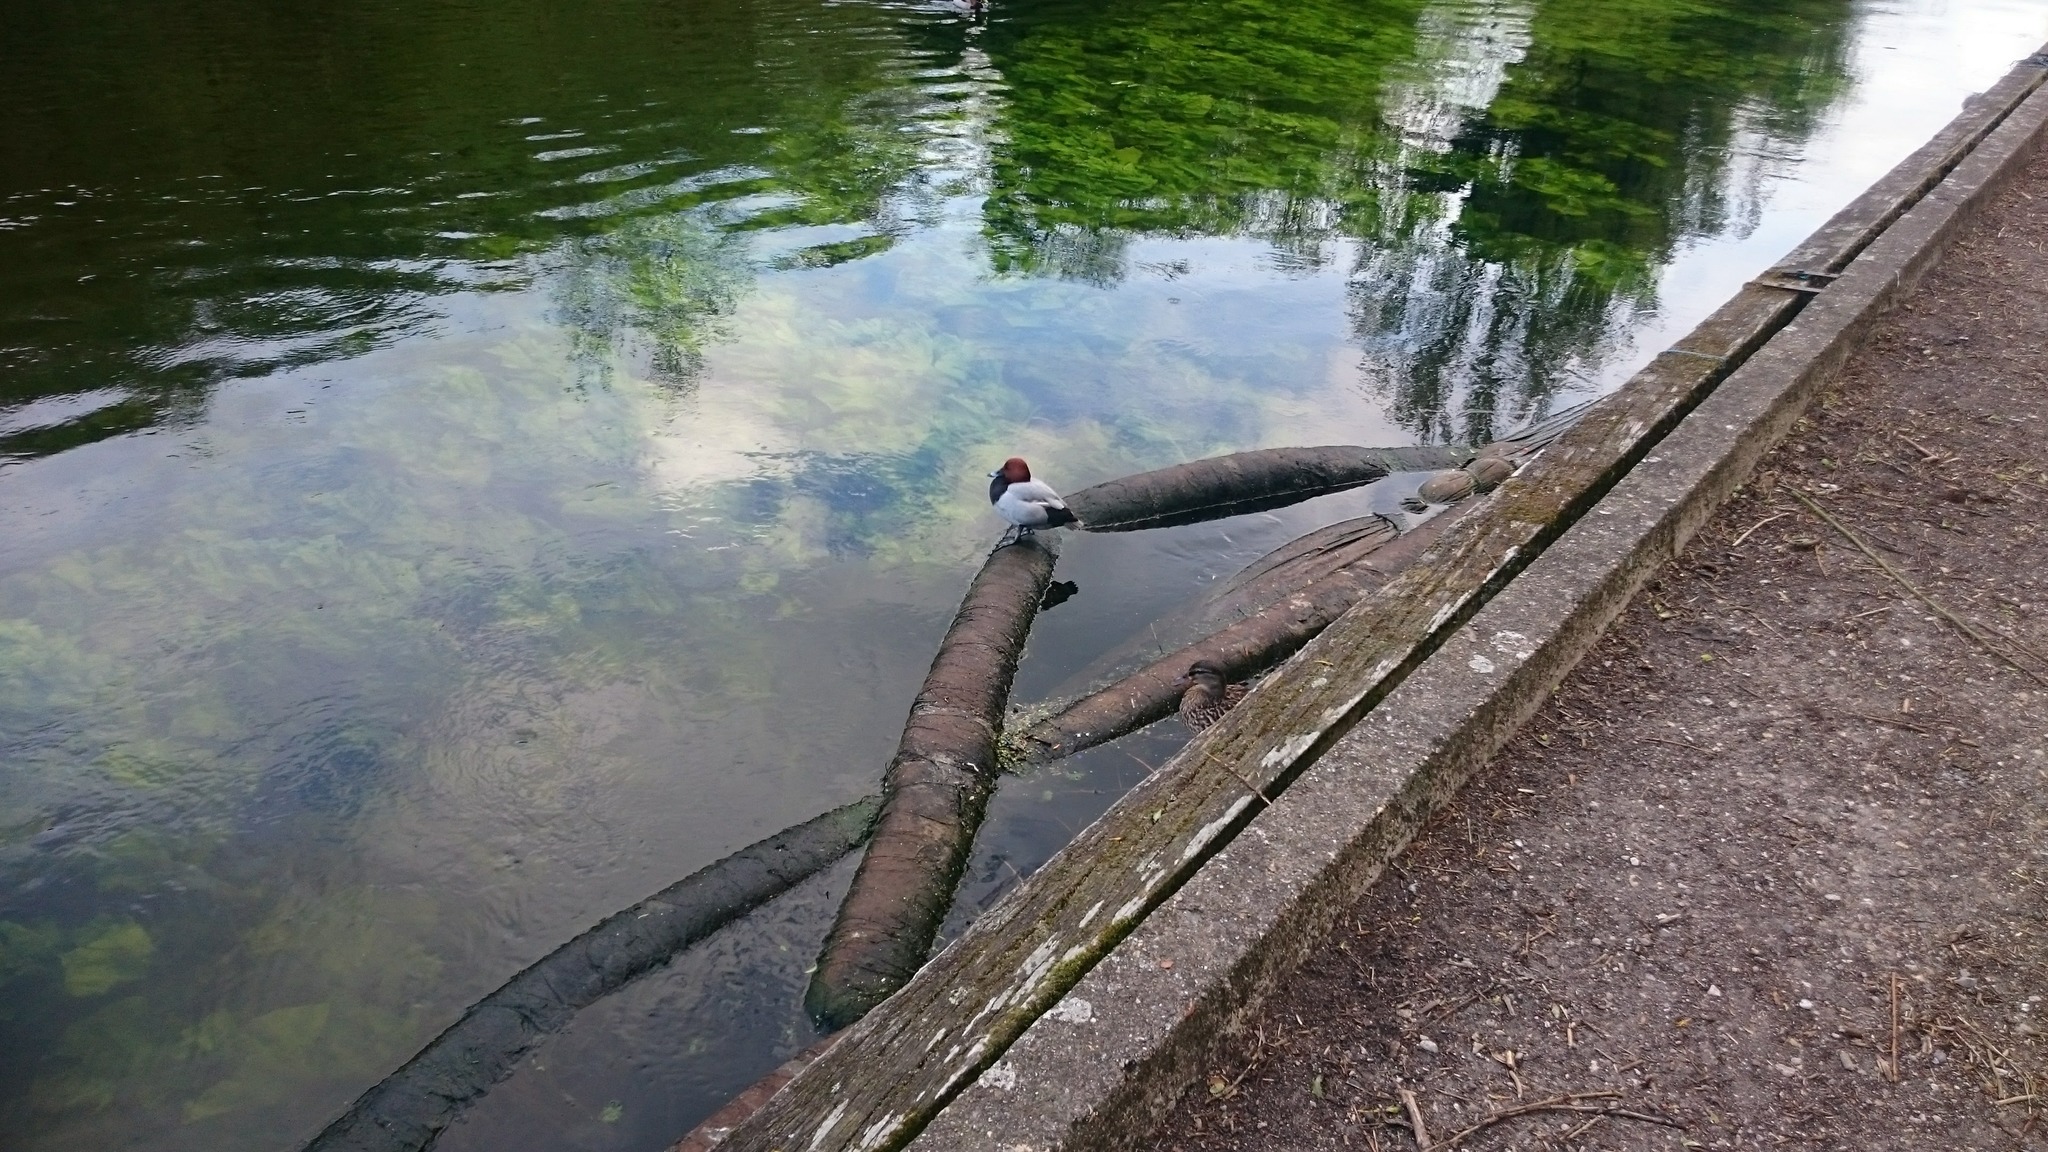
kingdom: Animalia
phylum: Chordata
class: Aves
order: Anseriformes
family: Anatidae
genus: Aythya
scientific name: Aythya ferina
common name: Common pochard
